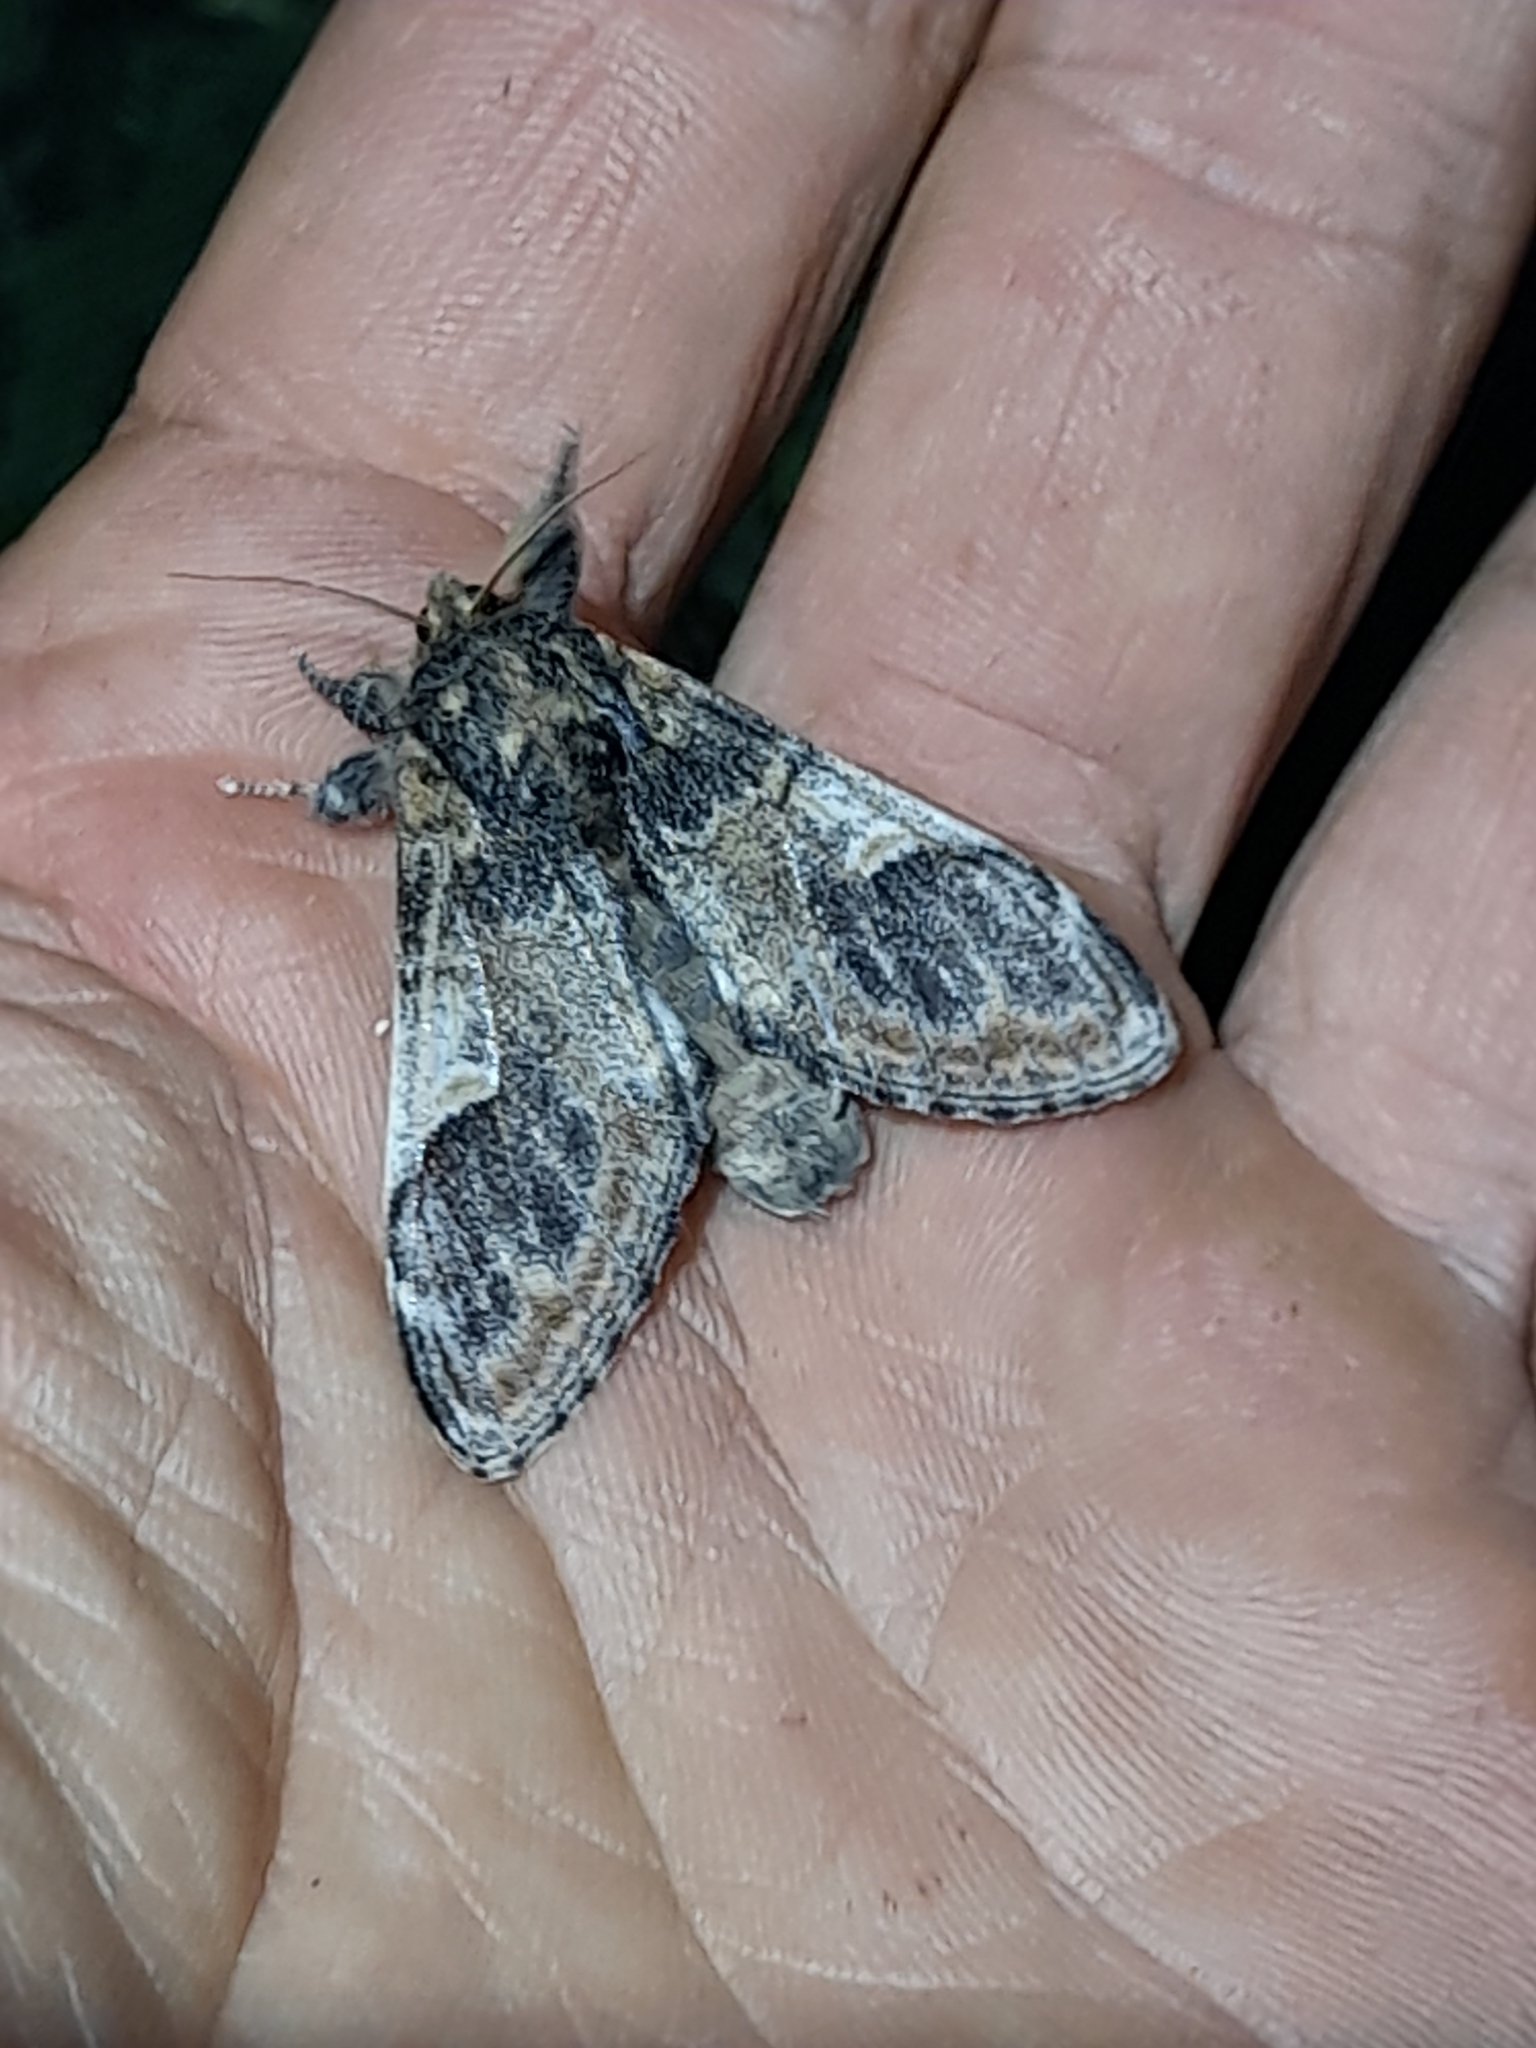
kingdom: Animalia
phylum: Arthropoda
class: Insecta
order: Lepidoptera
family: Notodontidae
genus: Notodonta
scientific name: Notodonta tritophus
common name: Three-humped prominent
